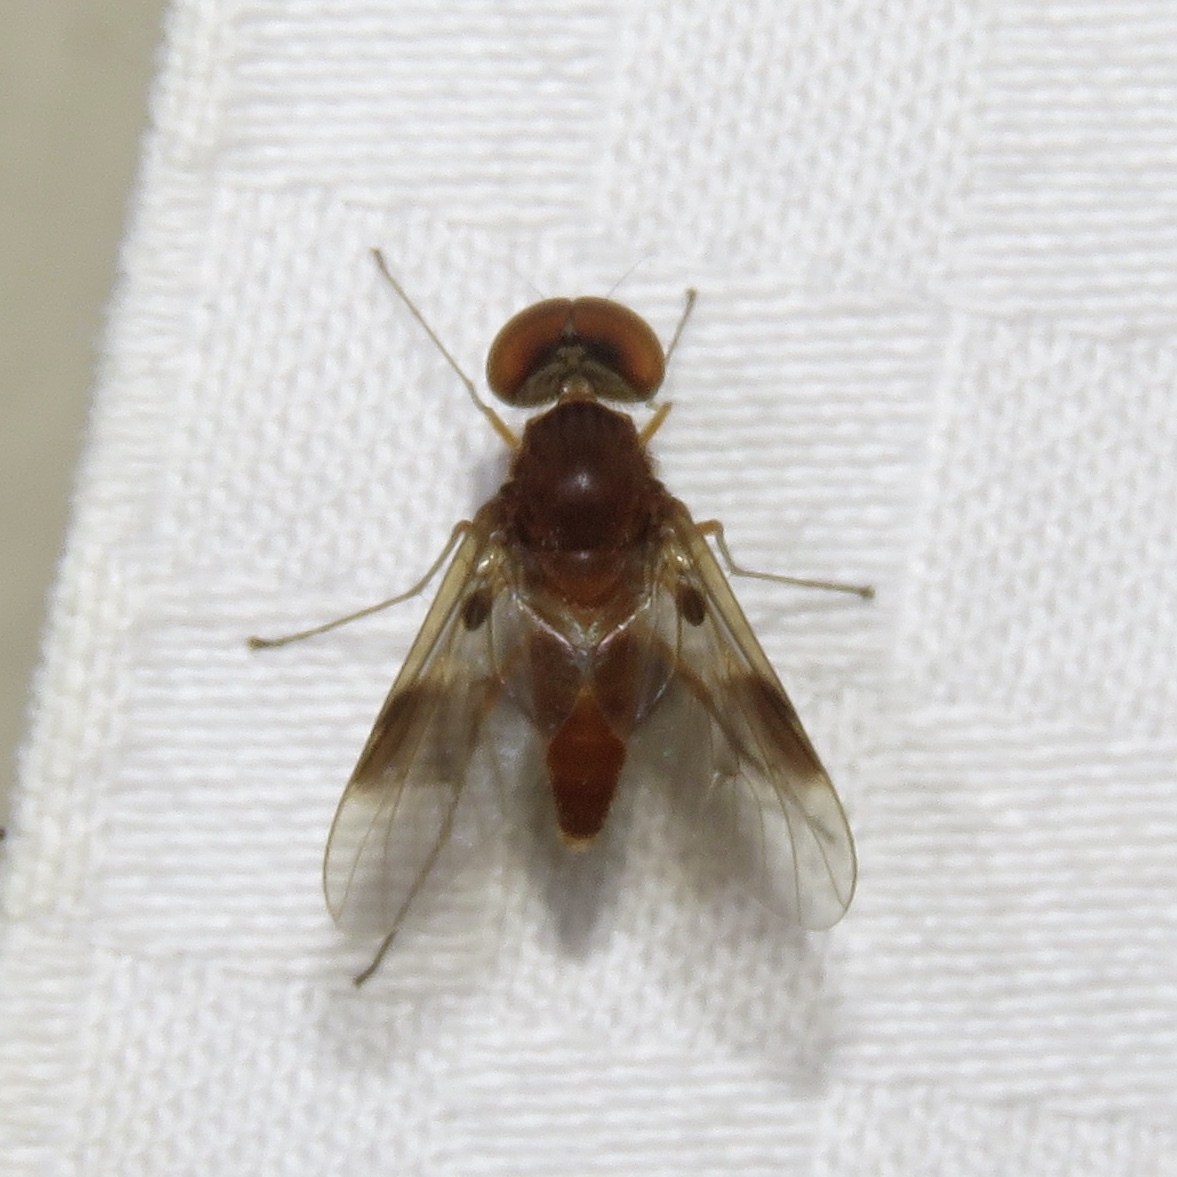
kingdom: Animalia
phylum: Arthropoda
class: Insecta
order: Diptera
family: Rhagionidae
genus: Chrysopilus
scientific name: Chrysopilus quadratus
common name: Quadrate snipe fly
